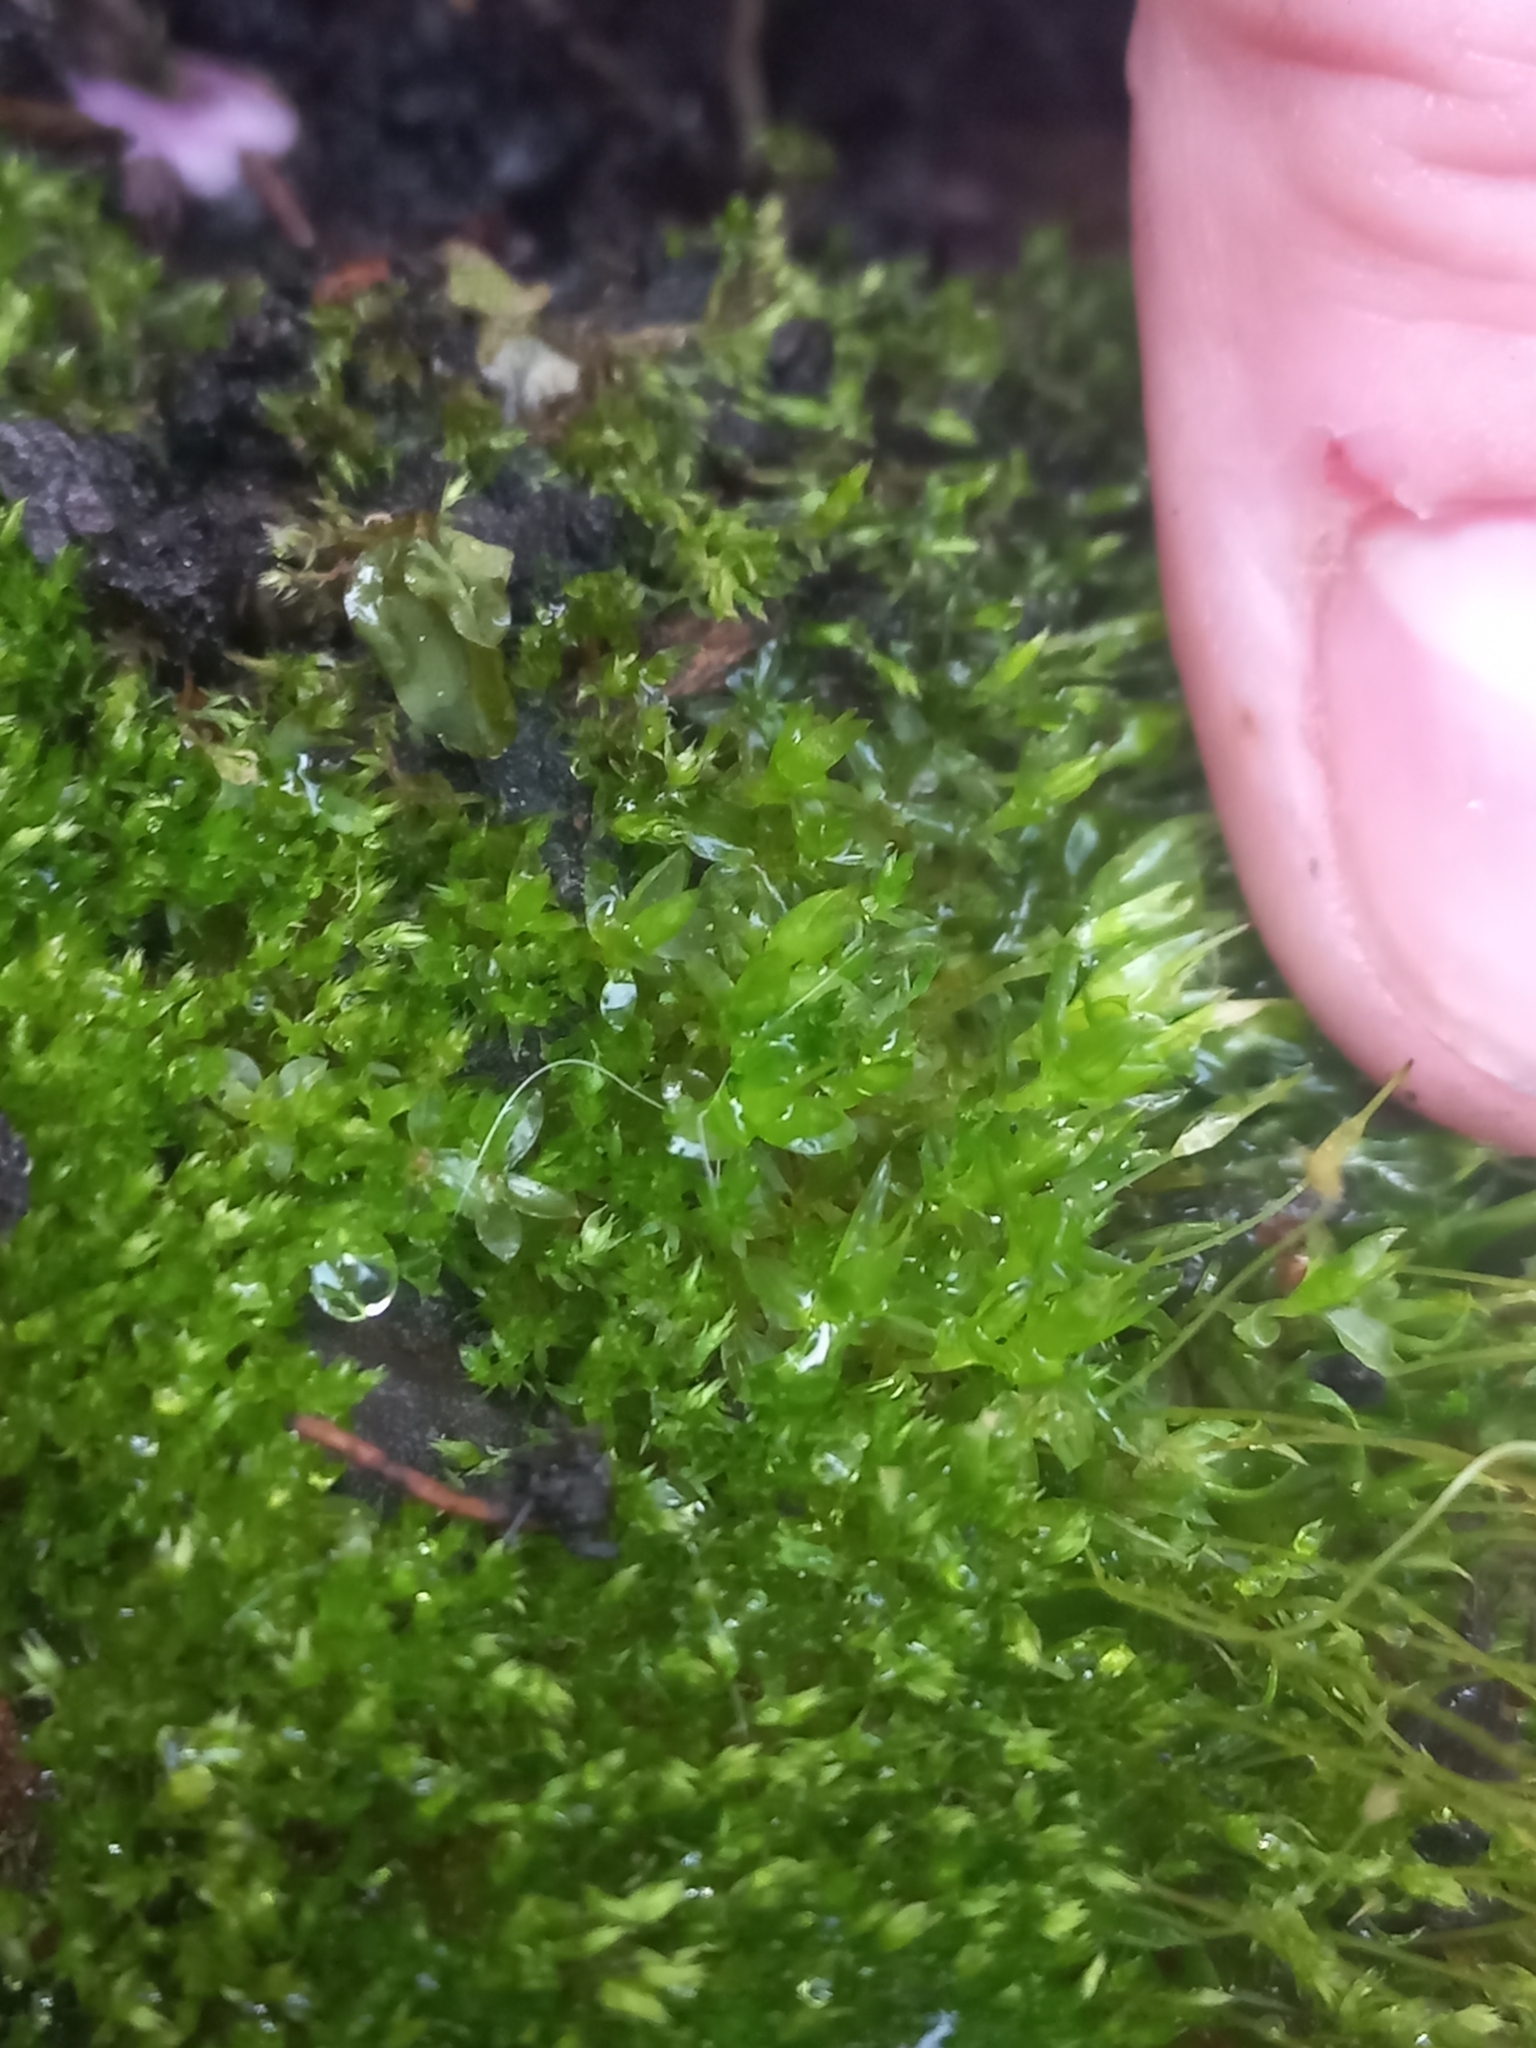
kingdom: Plantae
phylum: Bryophyta
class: Bryopsida
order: Funariales
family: Funariaceae
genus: Funaria
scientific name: Funaria hygrometrica
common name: Common cord moss
